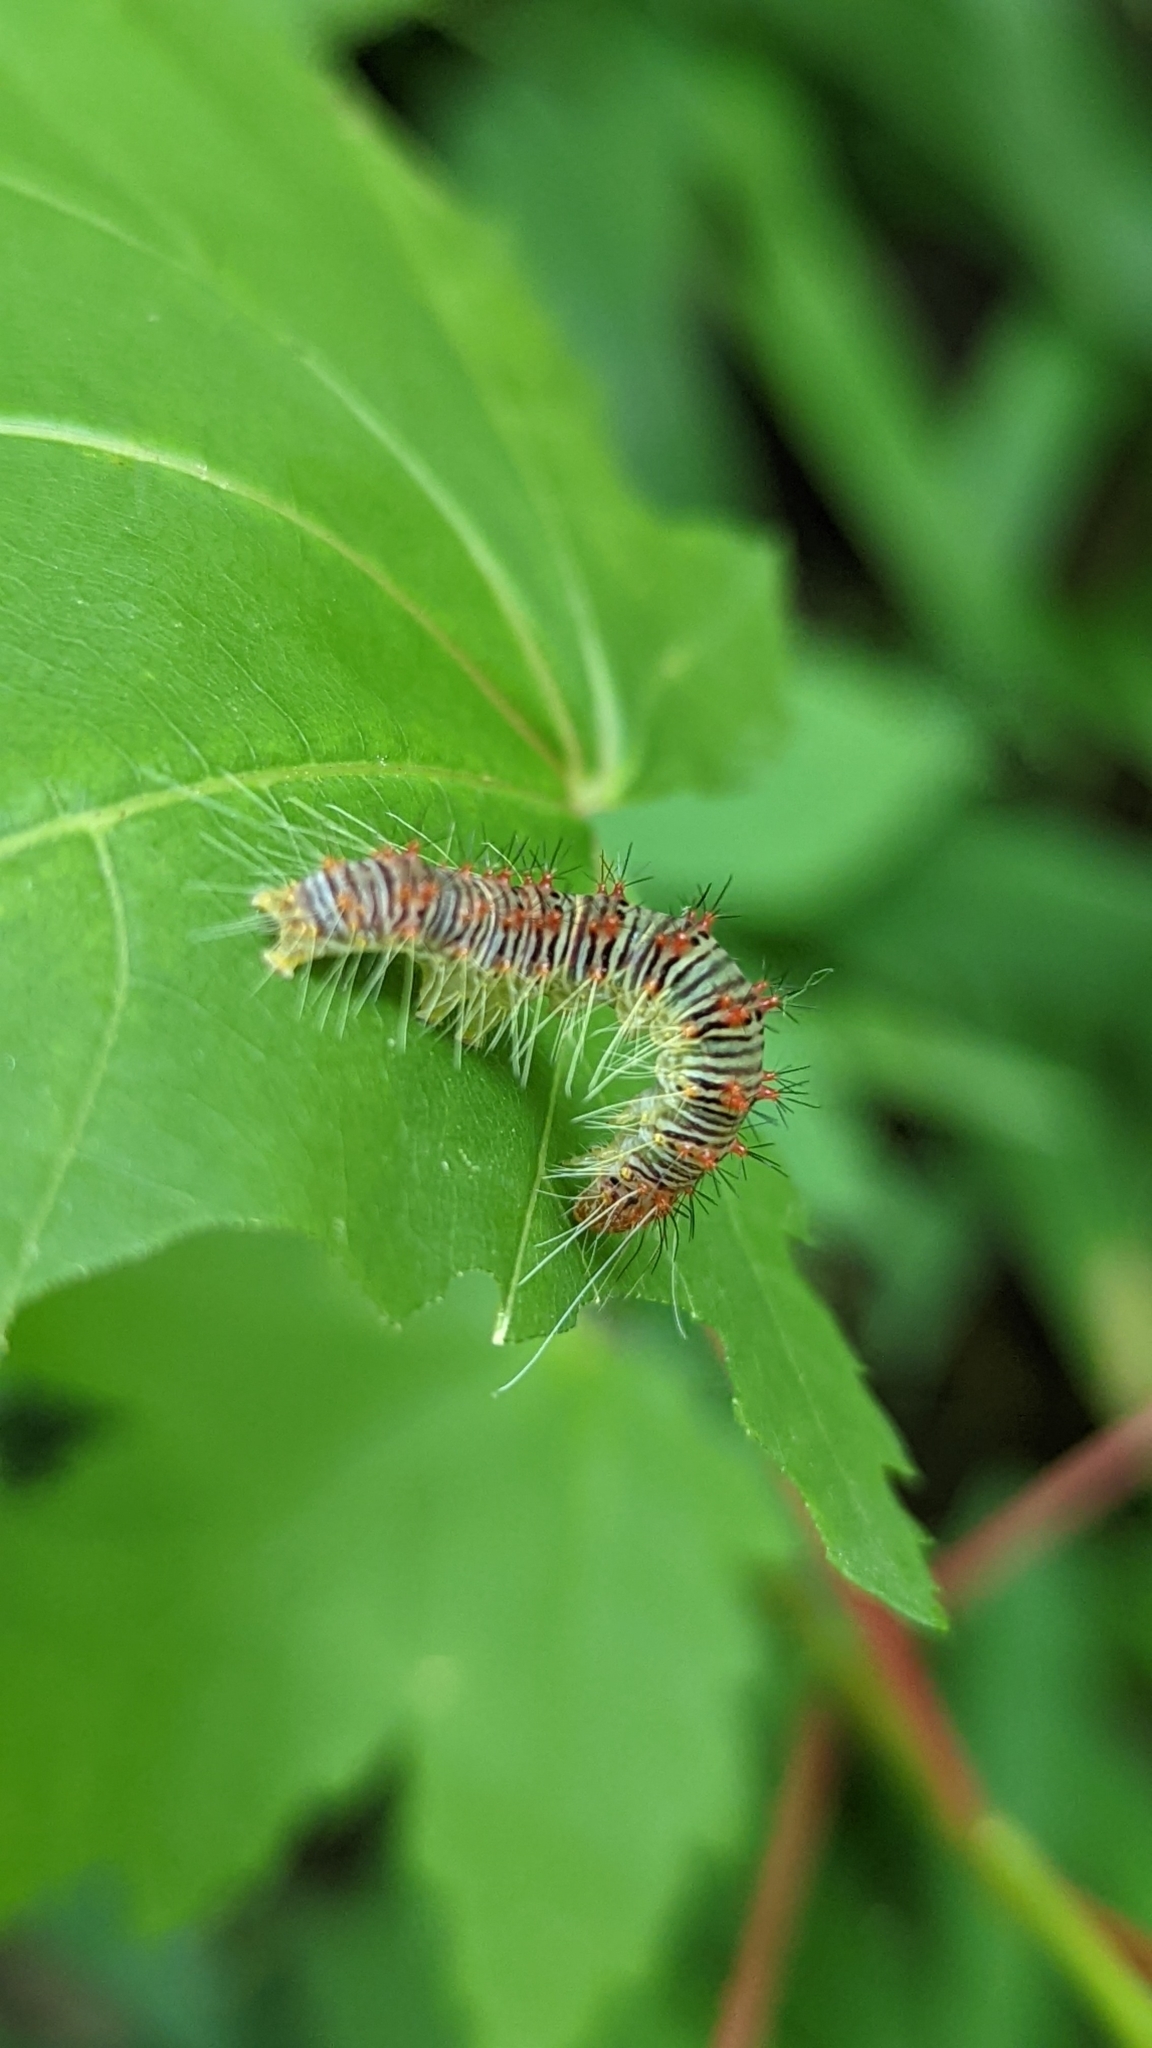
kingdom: Animalia
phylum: Arthropoda
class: Insecta
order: Lepidoptera
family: Noctuidae
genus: Acronicta
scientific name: Acronicta retardata
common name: Maple dagger
